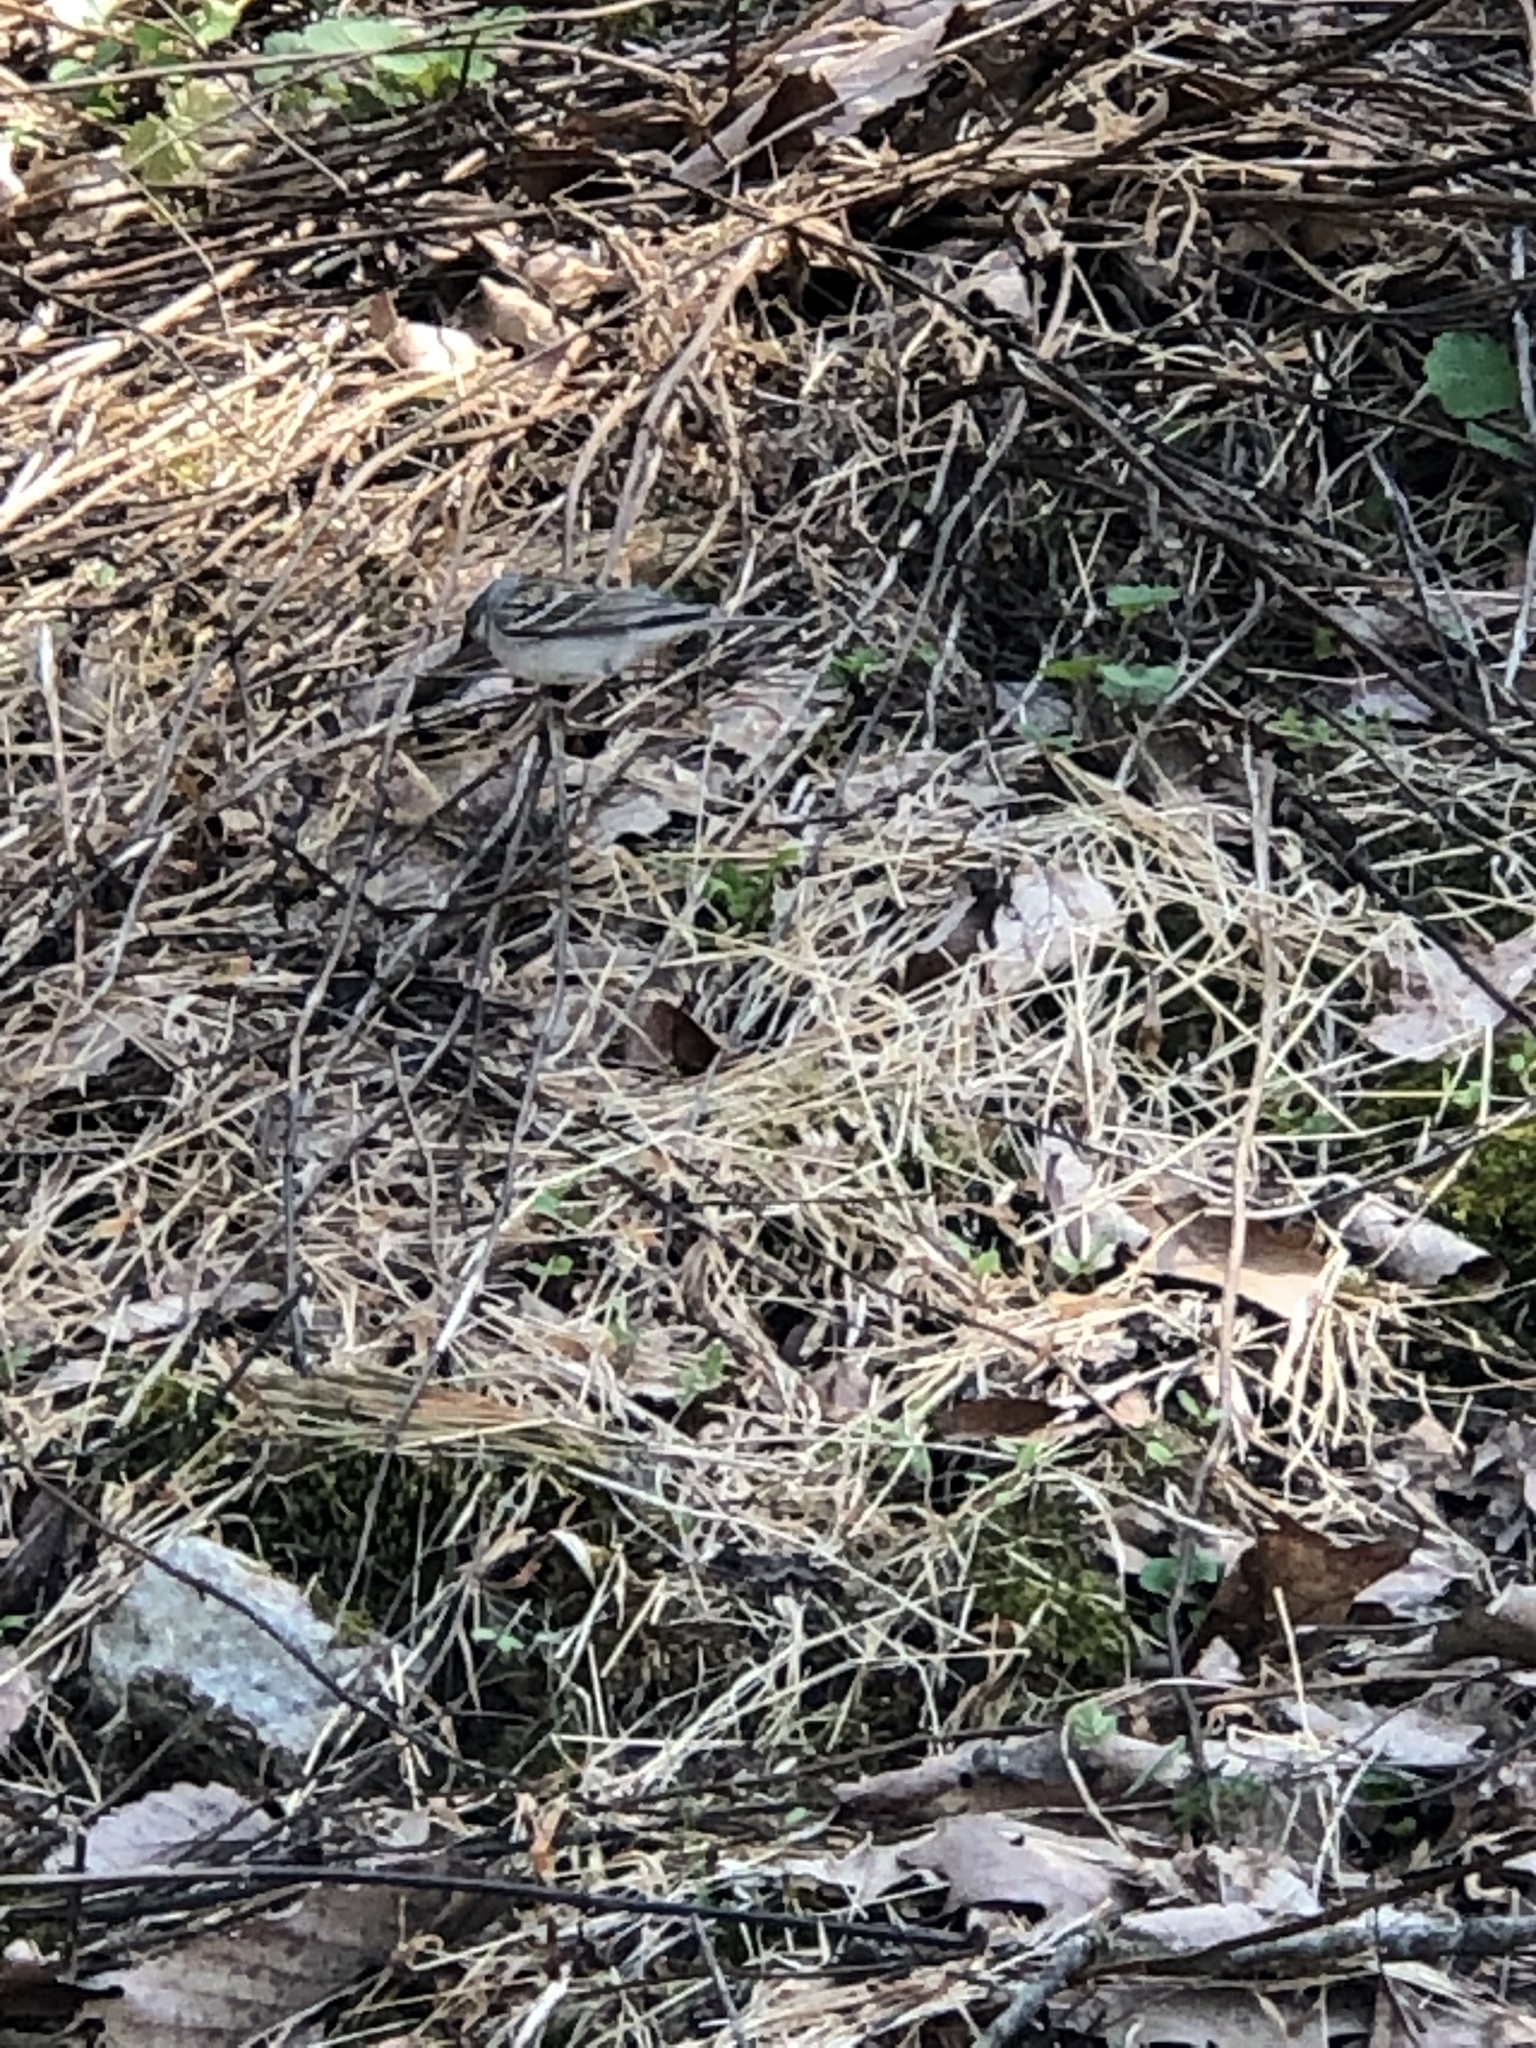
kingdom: Animalia
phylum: Chordata
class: Aves
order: Passeriformes
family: Passerellidae
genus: Spizella
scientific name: Spizella passerina
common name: Chipping sparrow
